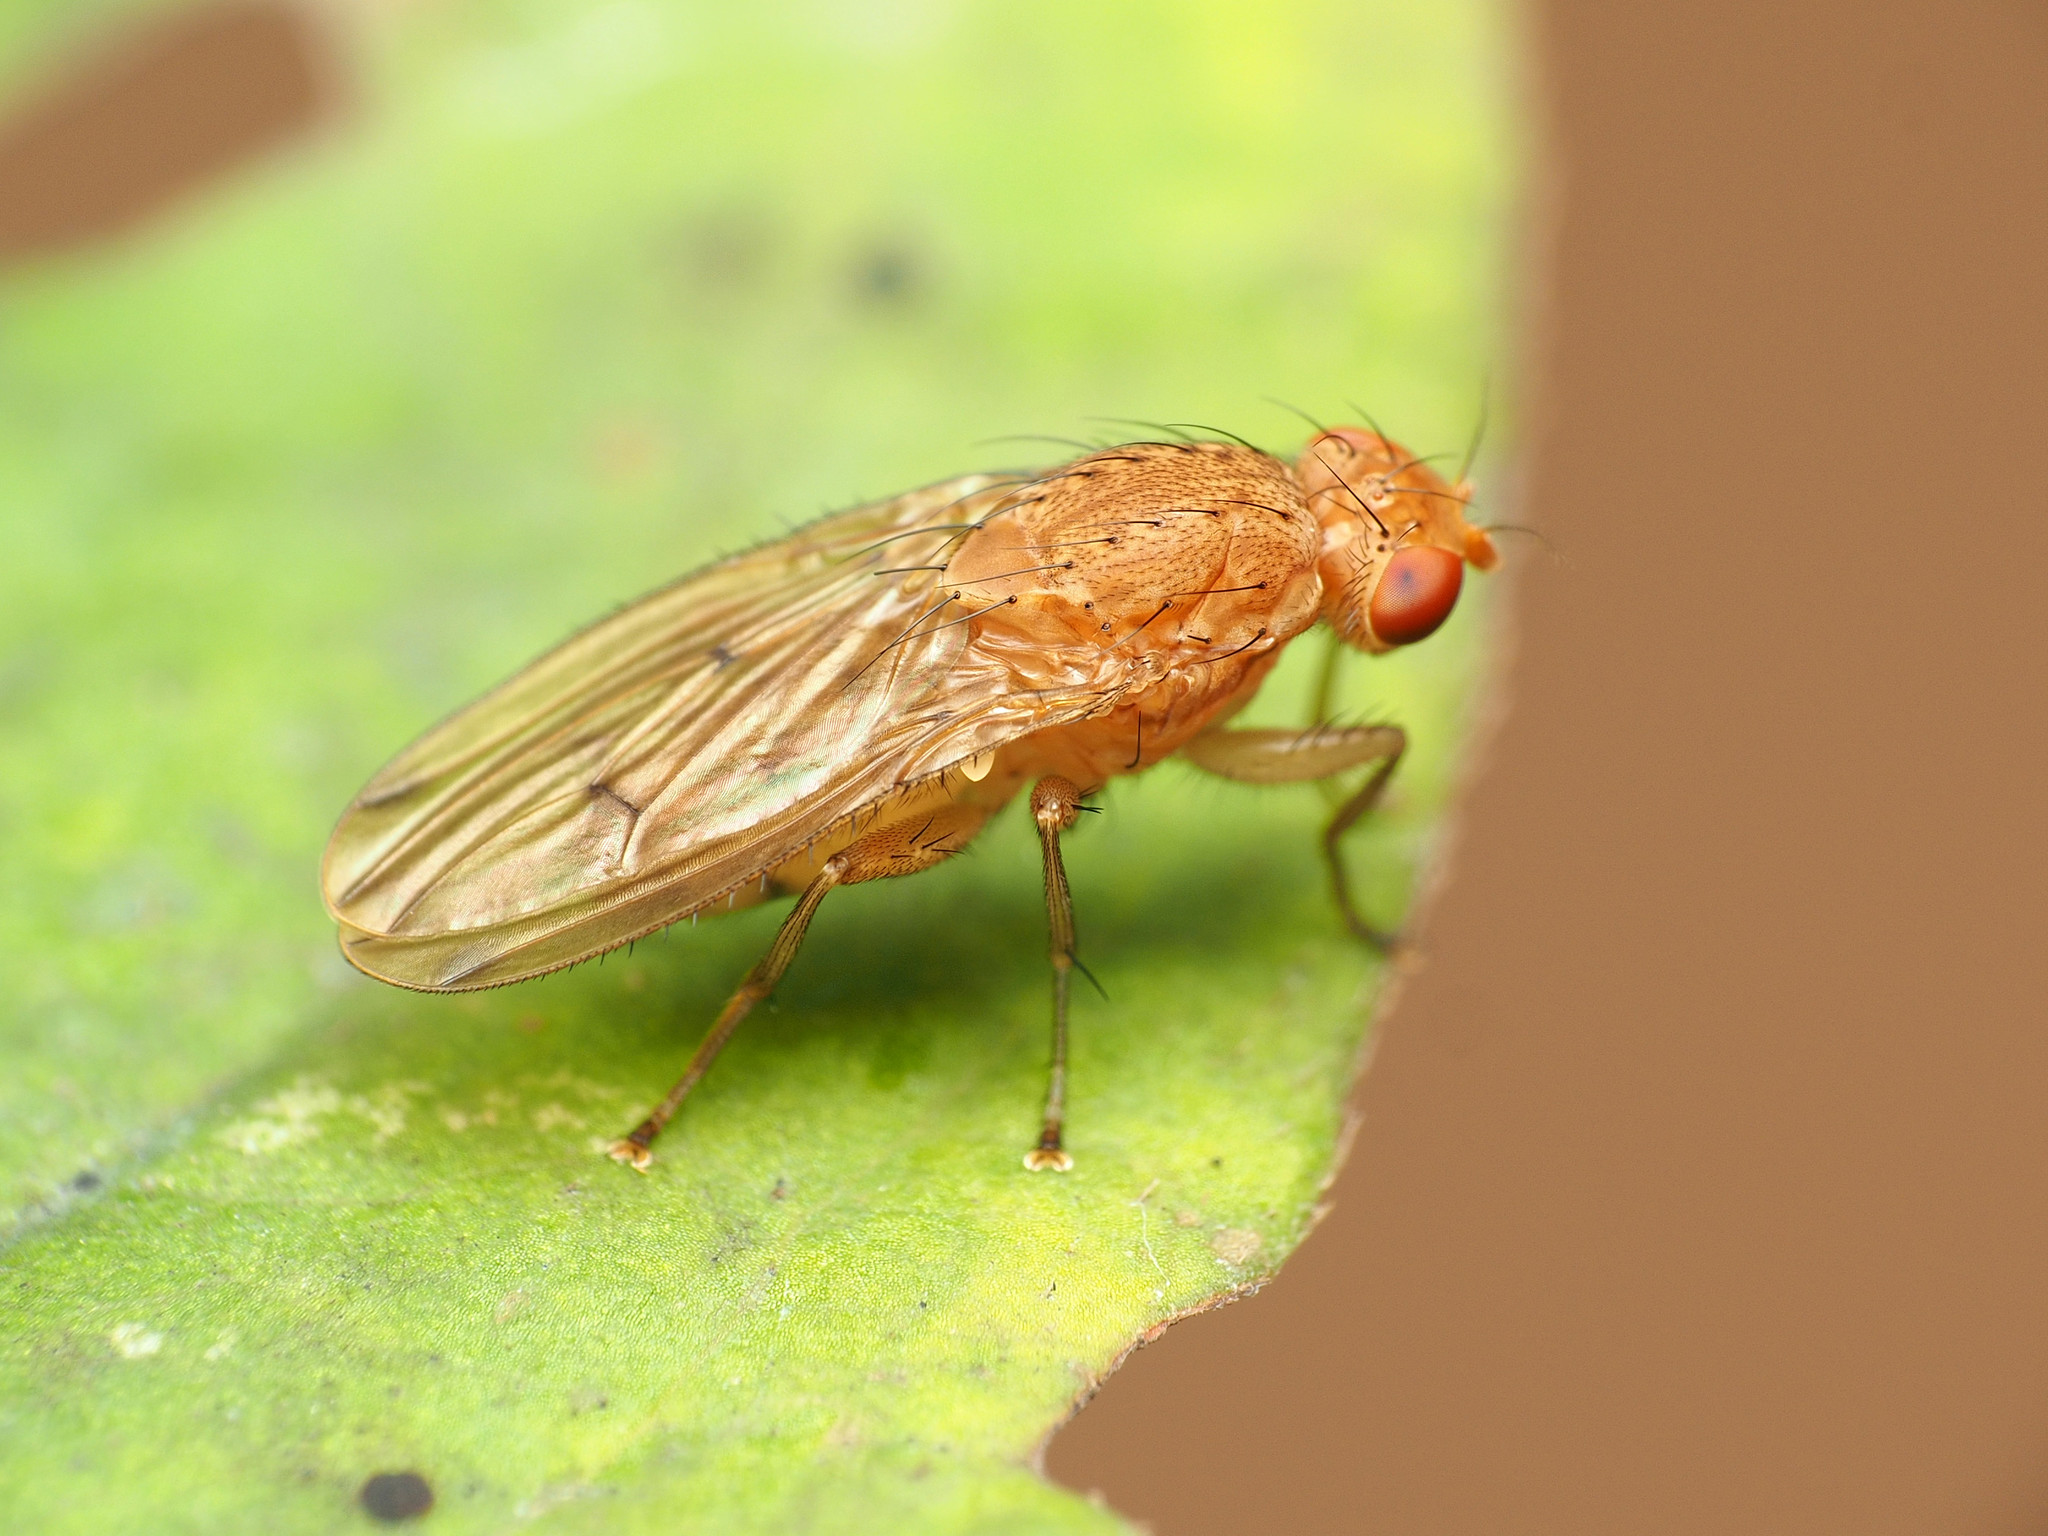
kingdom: Animalia
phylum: Arthropoda
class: Insecta
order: Diptera
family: Heleomyzidae
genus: Suillia
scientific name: Suillia plumata
